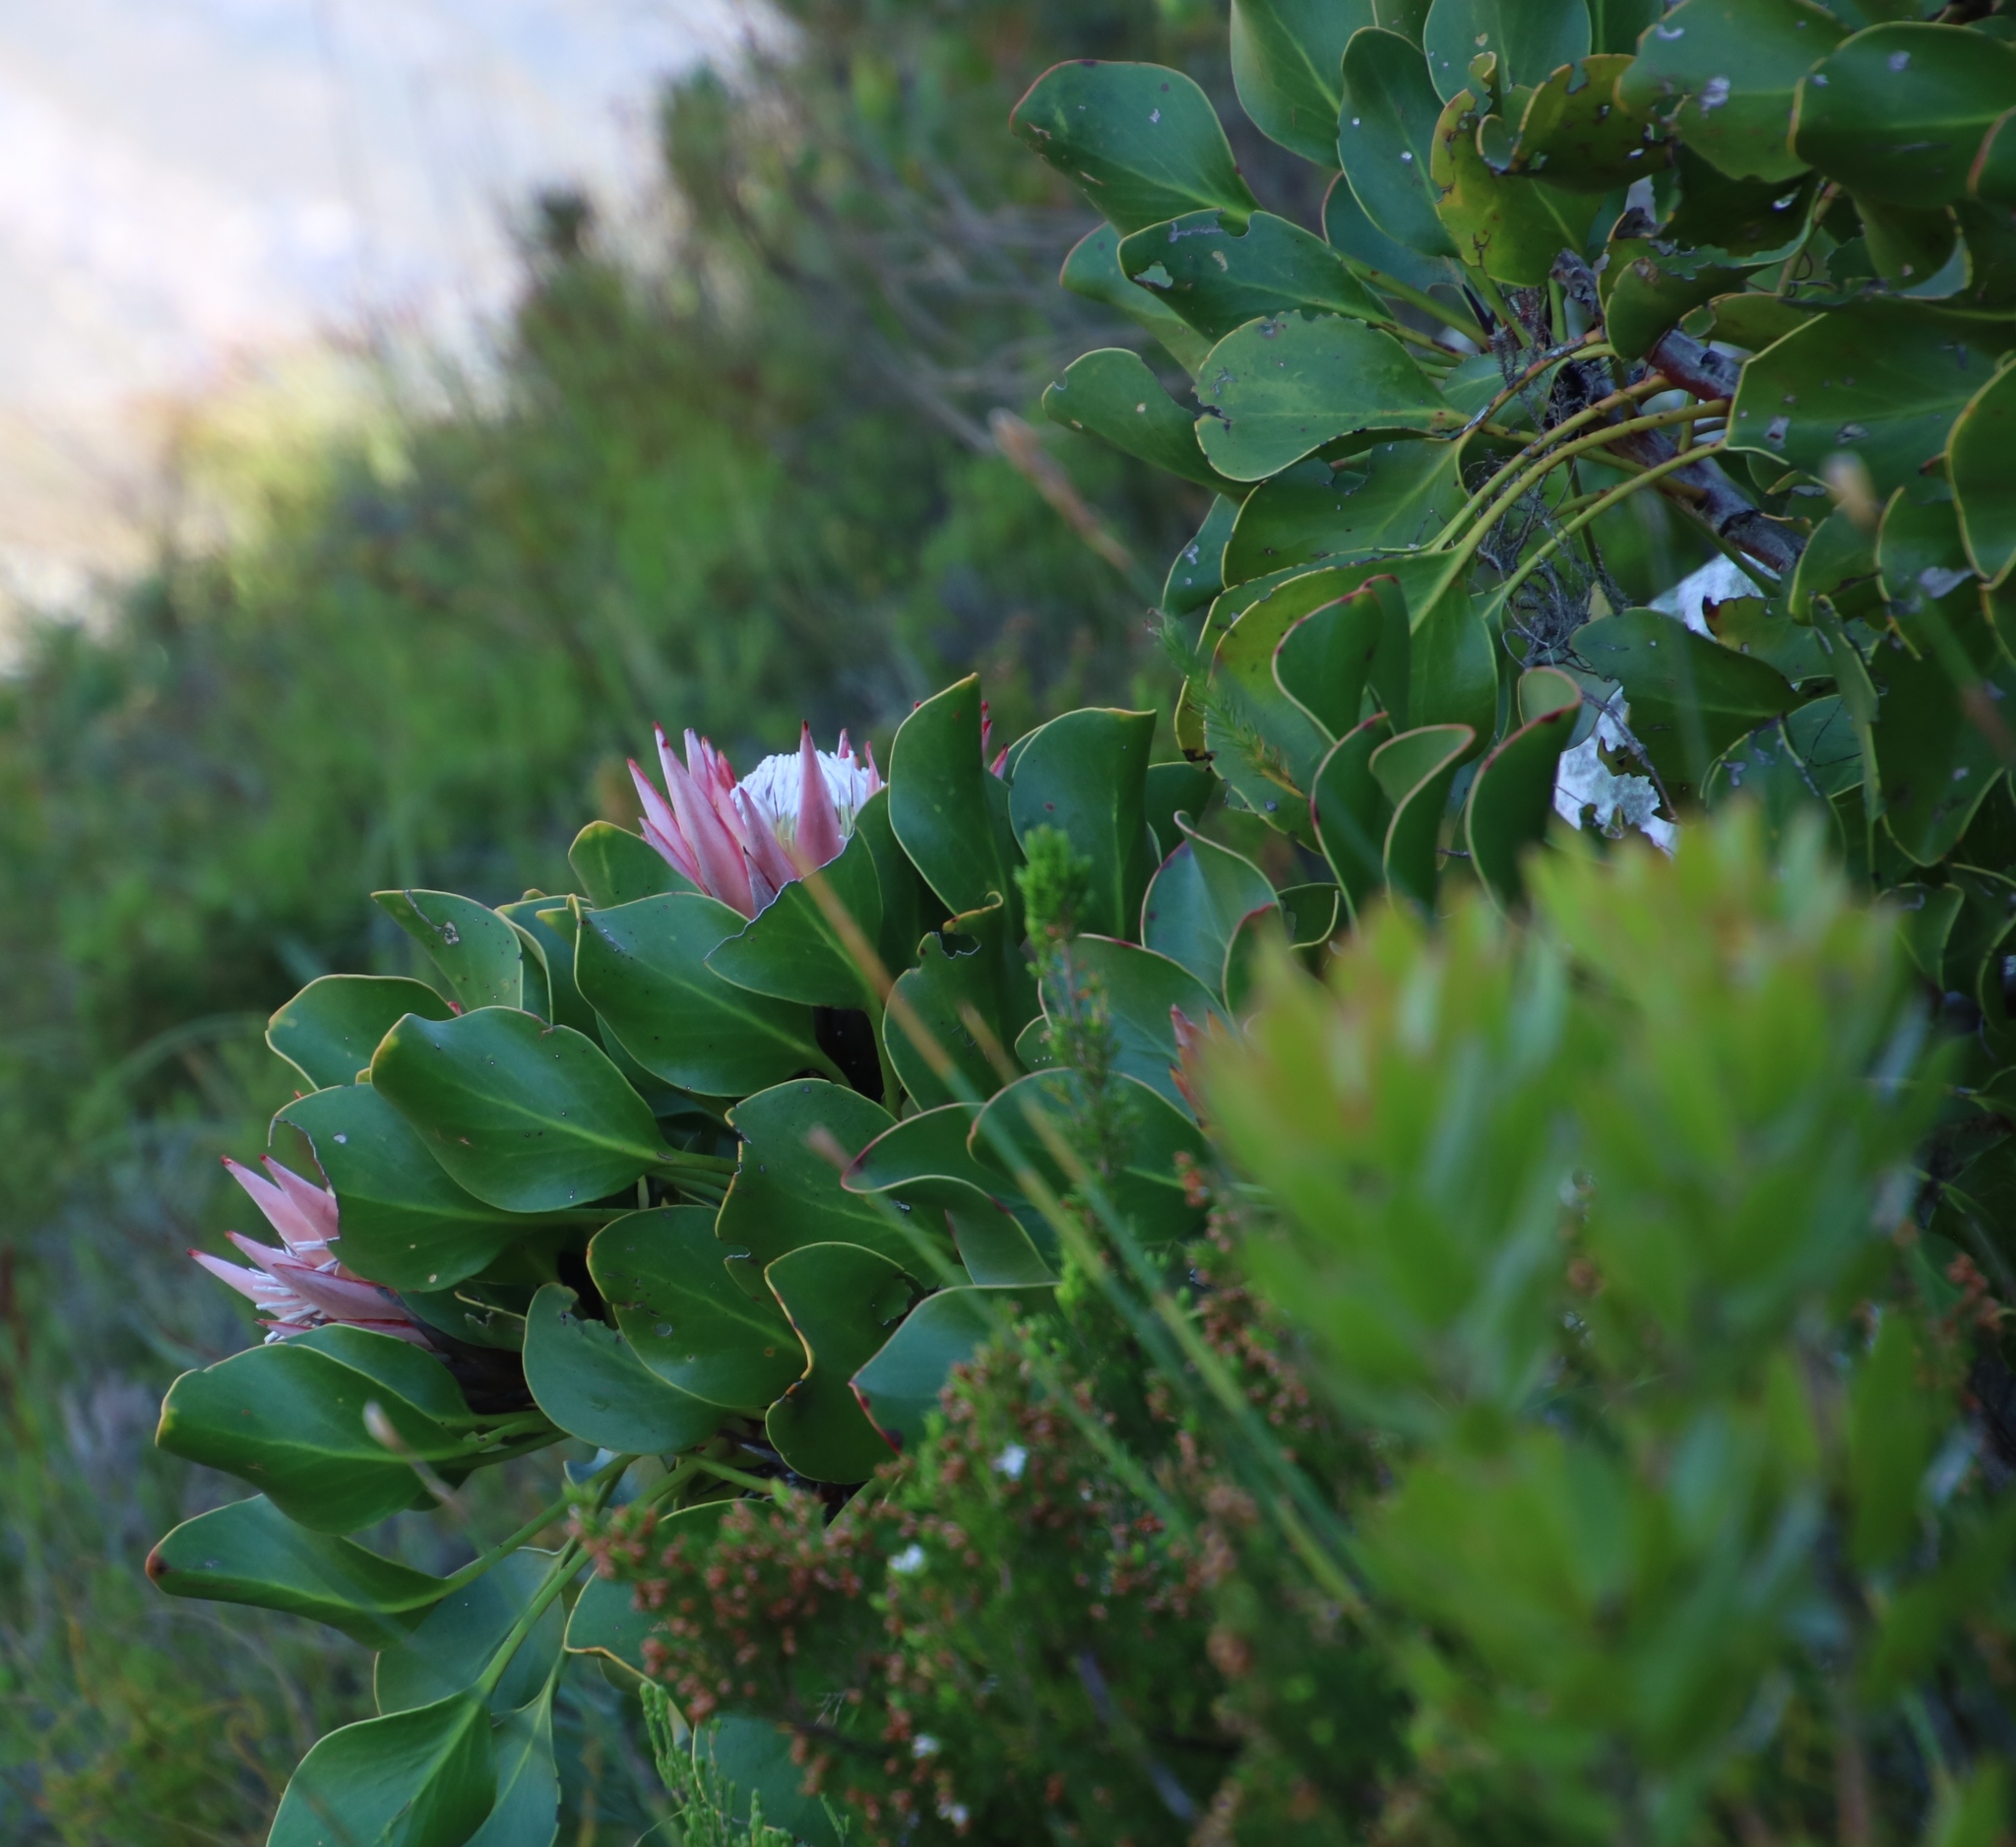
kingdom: Plantae
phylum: Tracheophyta
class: Magnoliopsida
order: Proteales
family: Proteaceae
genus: Protea
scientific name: Protea cynaroides
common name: King protea
